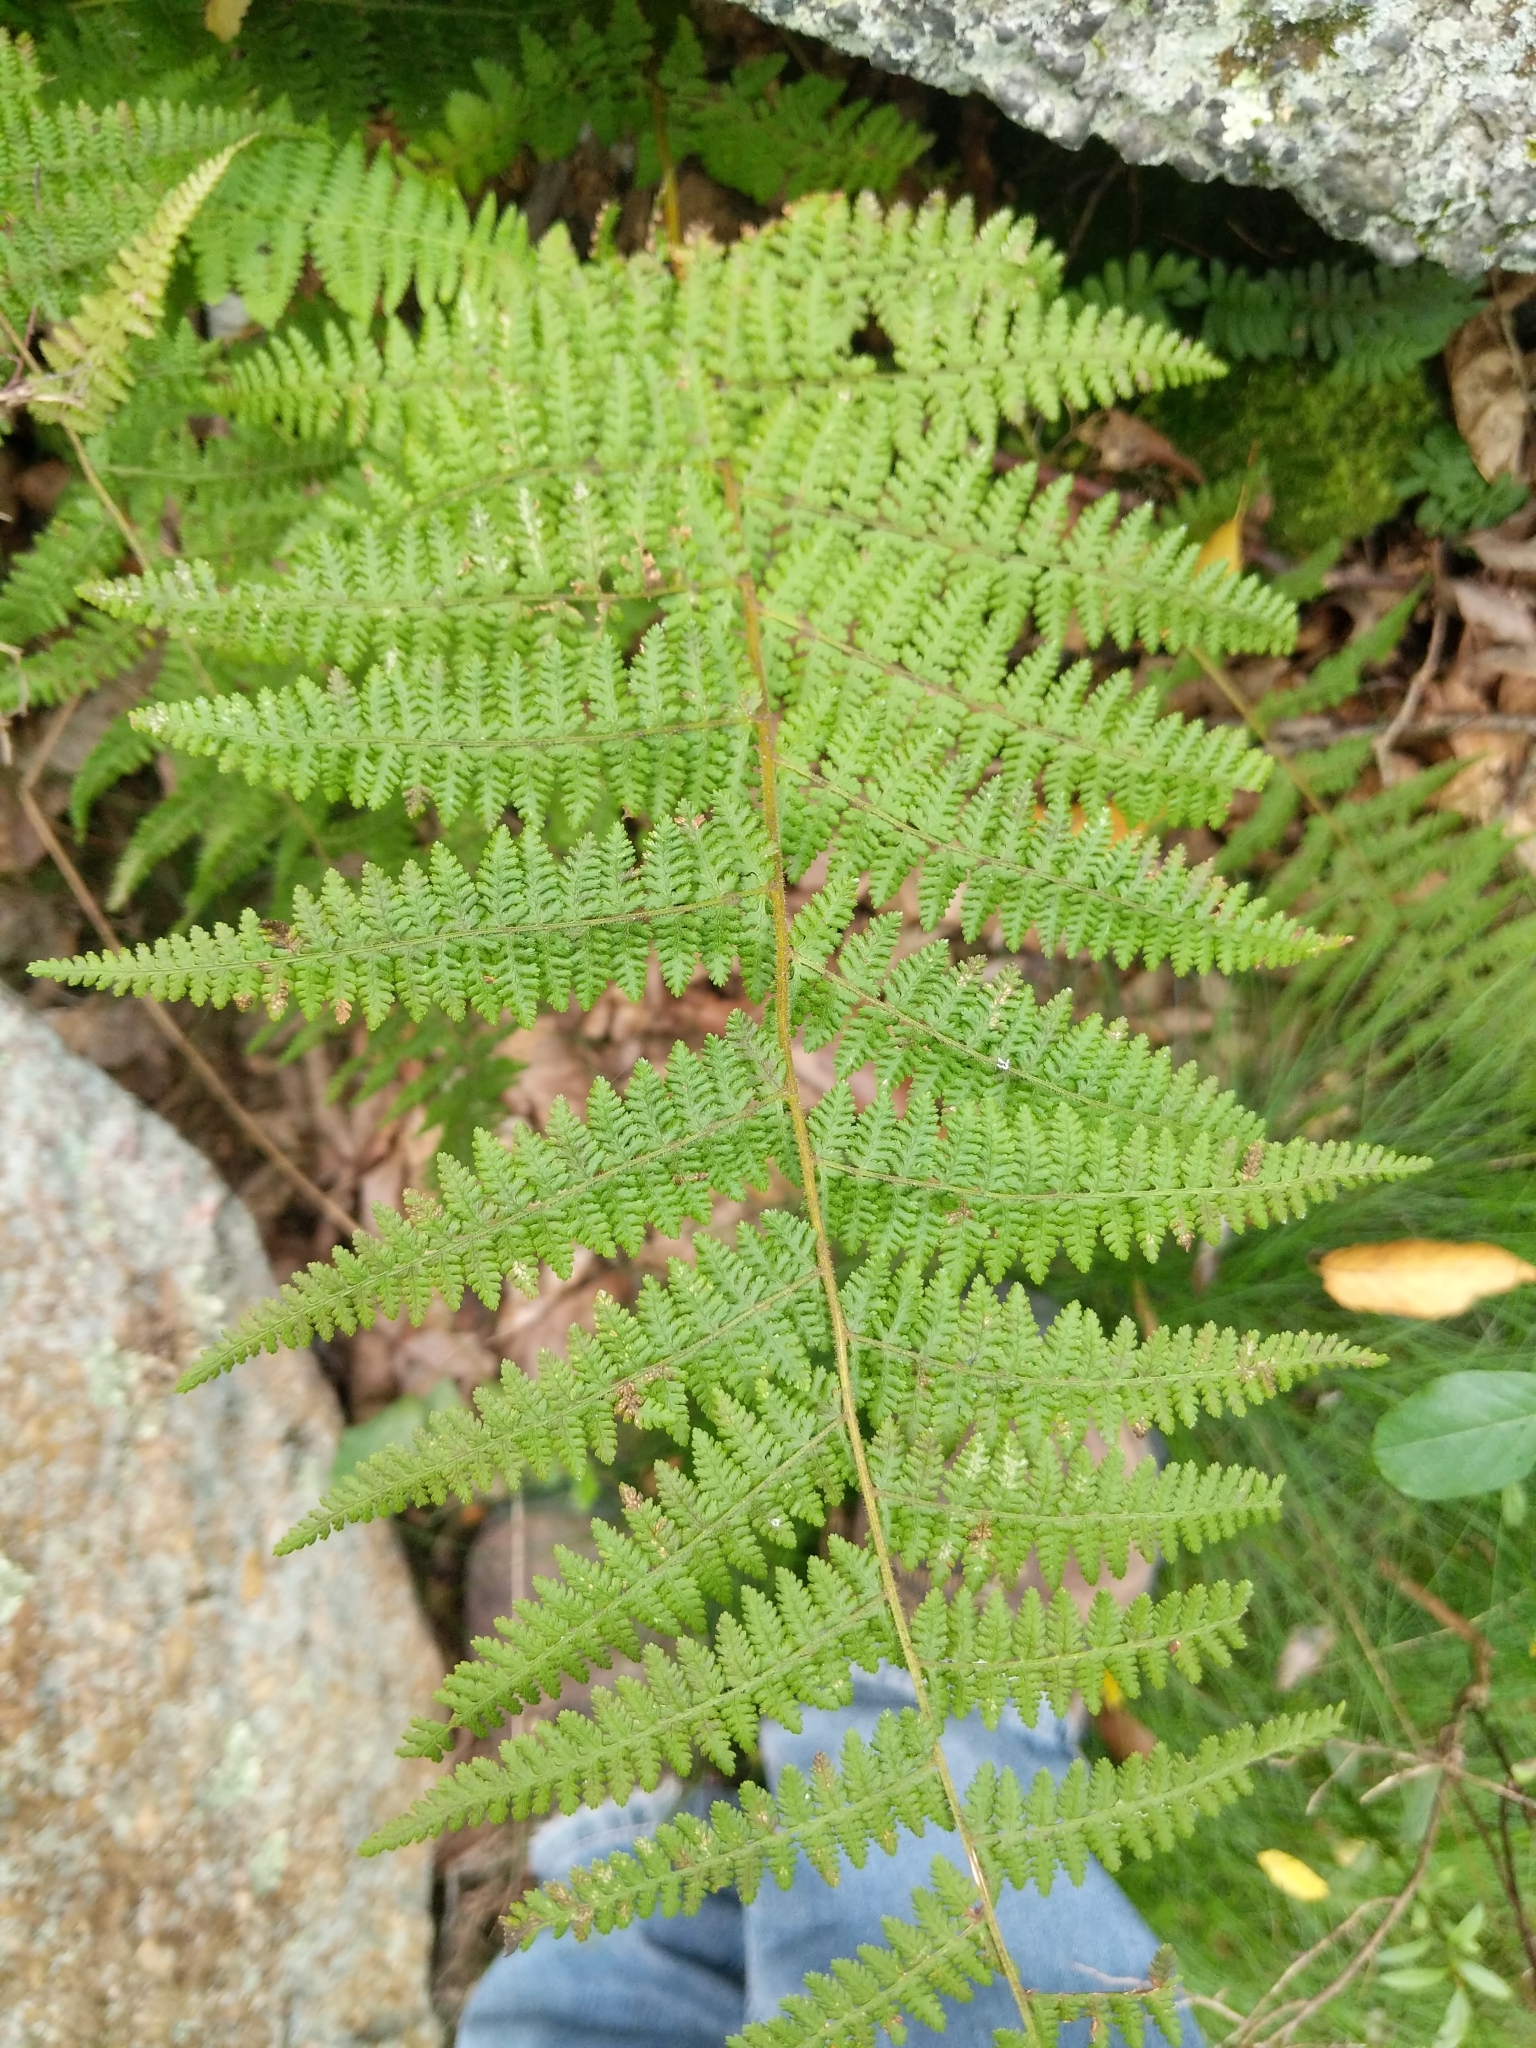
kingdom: Plantae
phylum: Tracheophyta
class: Polypodiopsida
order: Polypodiales
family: Dennstaedtiaceae
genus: Sitobolium
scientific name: Sitobolium punctilobum
